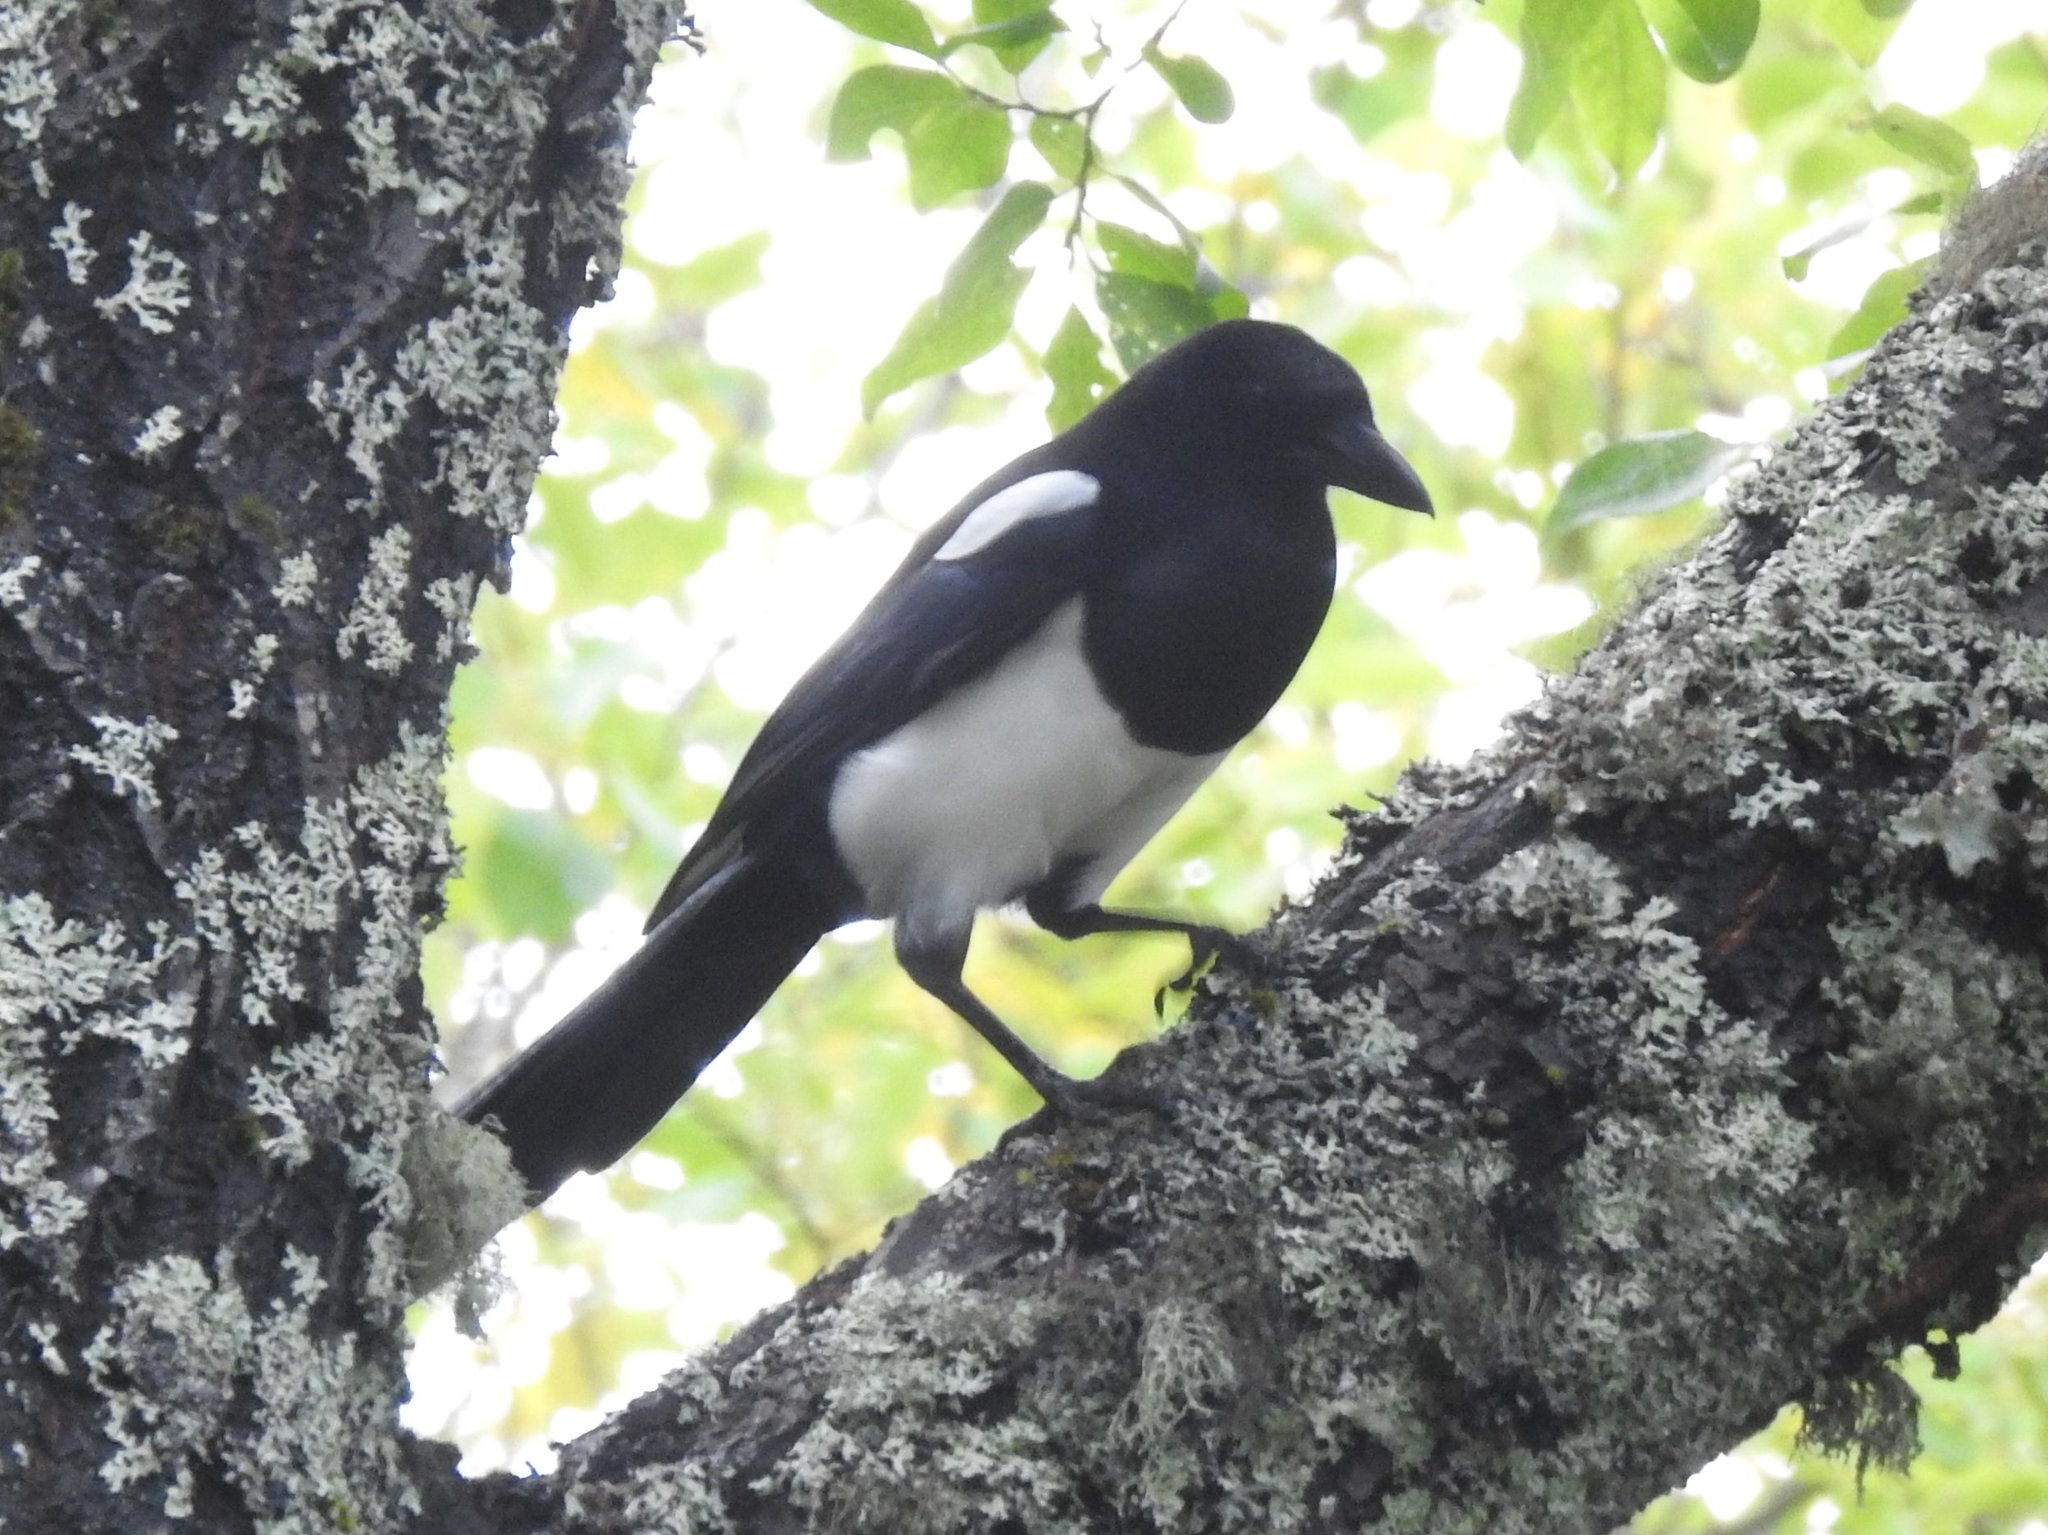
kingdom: Animalia
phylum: Chordata
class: Aves
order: Passeriformes
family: Corvidae
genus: Pica
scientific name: Pica pica
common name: Eurasian magpie
